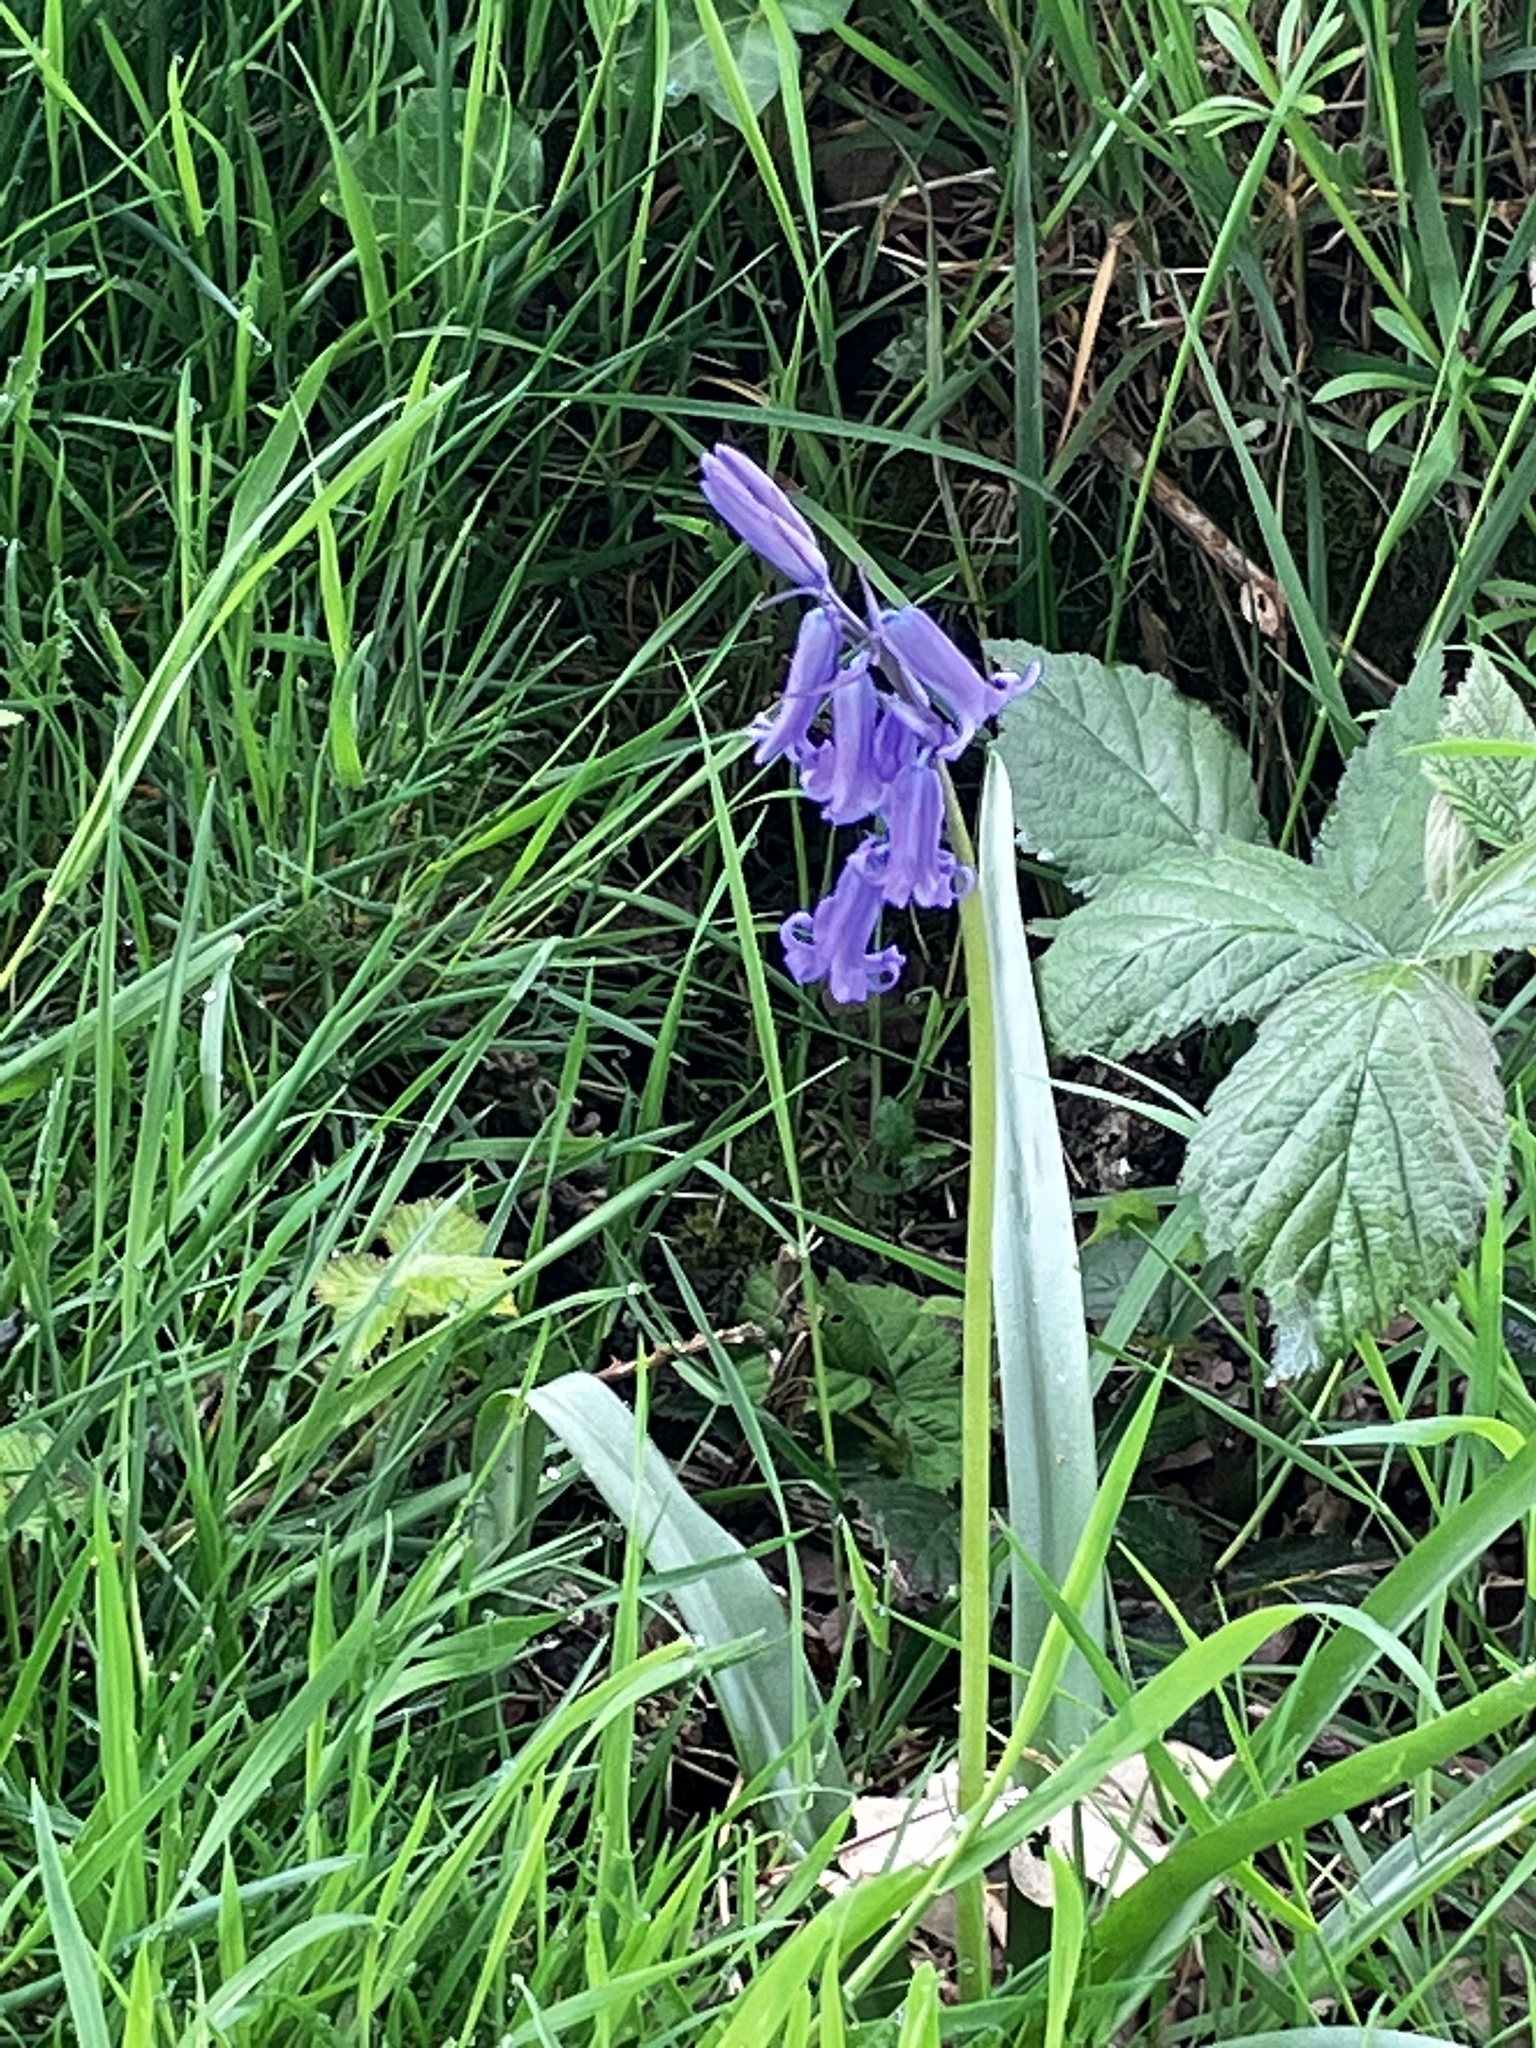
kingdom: Plantae
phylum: Tracheophyta
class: Liliopsida
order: Asparagales
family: Asparagaceae
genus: Hyacinthoides
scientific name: Hyacinthoides non-scripta
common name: Bluebell
